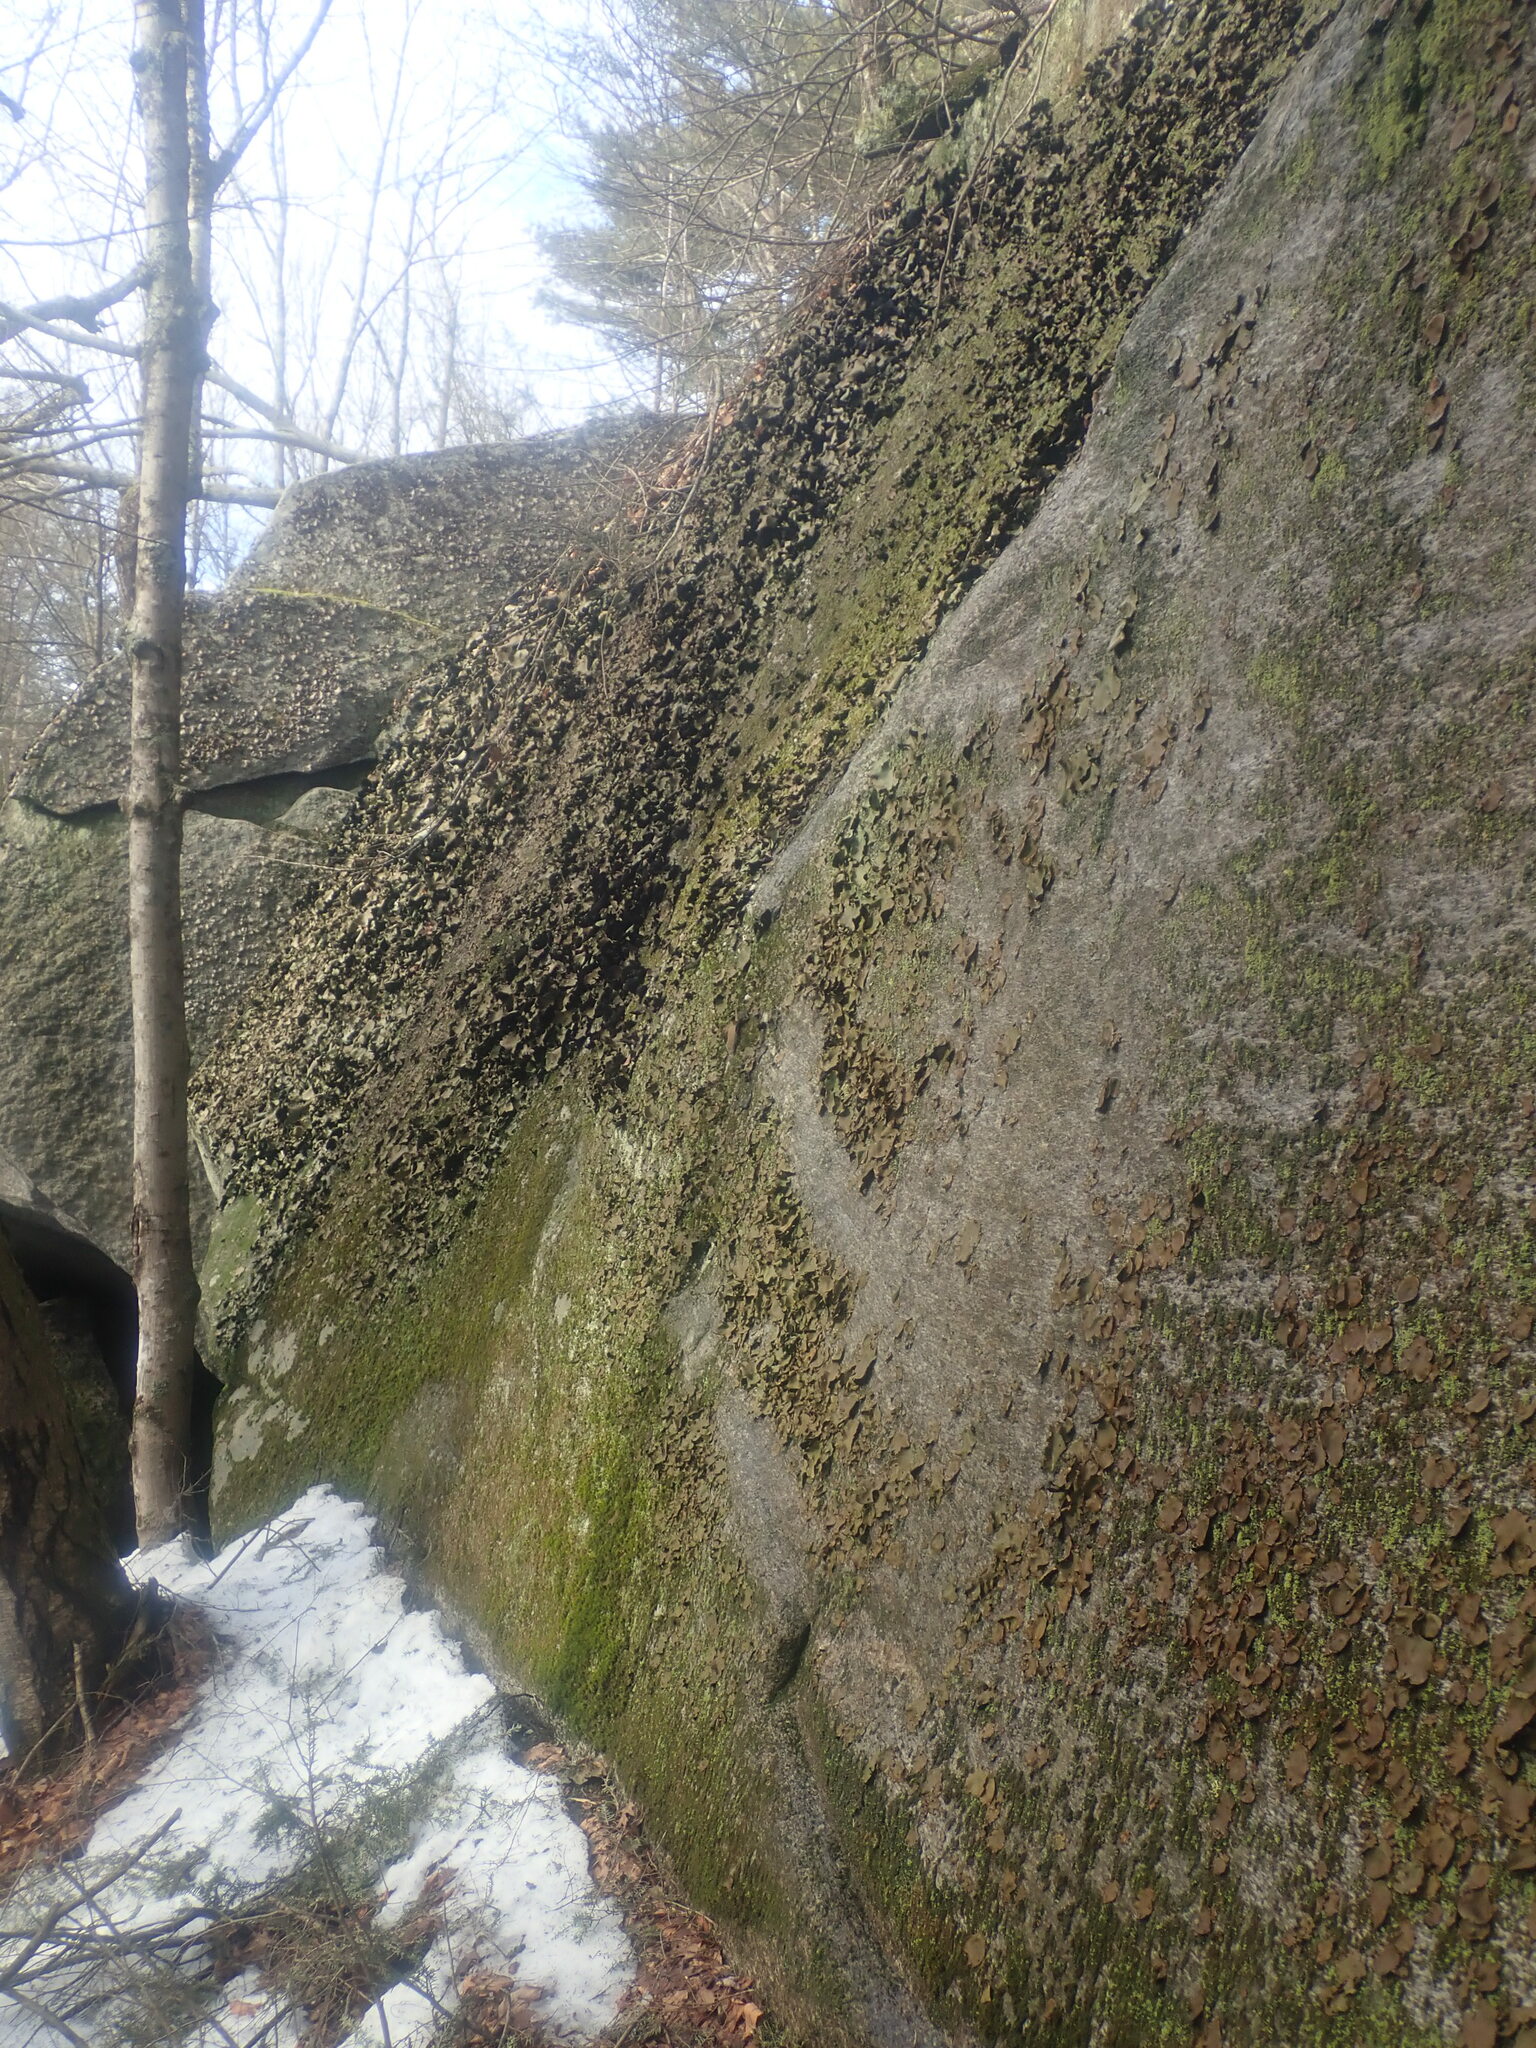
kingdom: Fungi
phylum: Ascomycota
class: Lecanoromycetes
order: Umbilicariales
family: Umbilicariaceae
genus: Umbilicaria
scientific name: Umbilicaria mammulata
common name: Smooth rock tripe
